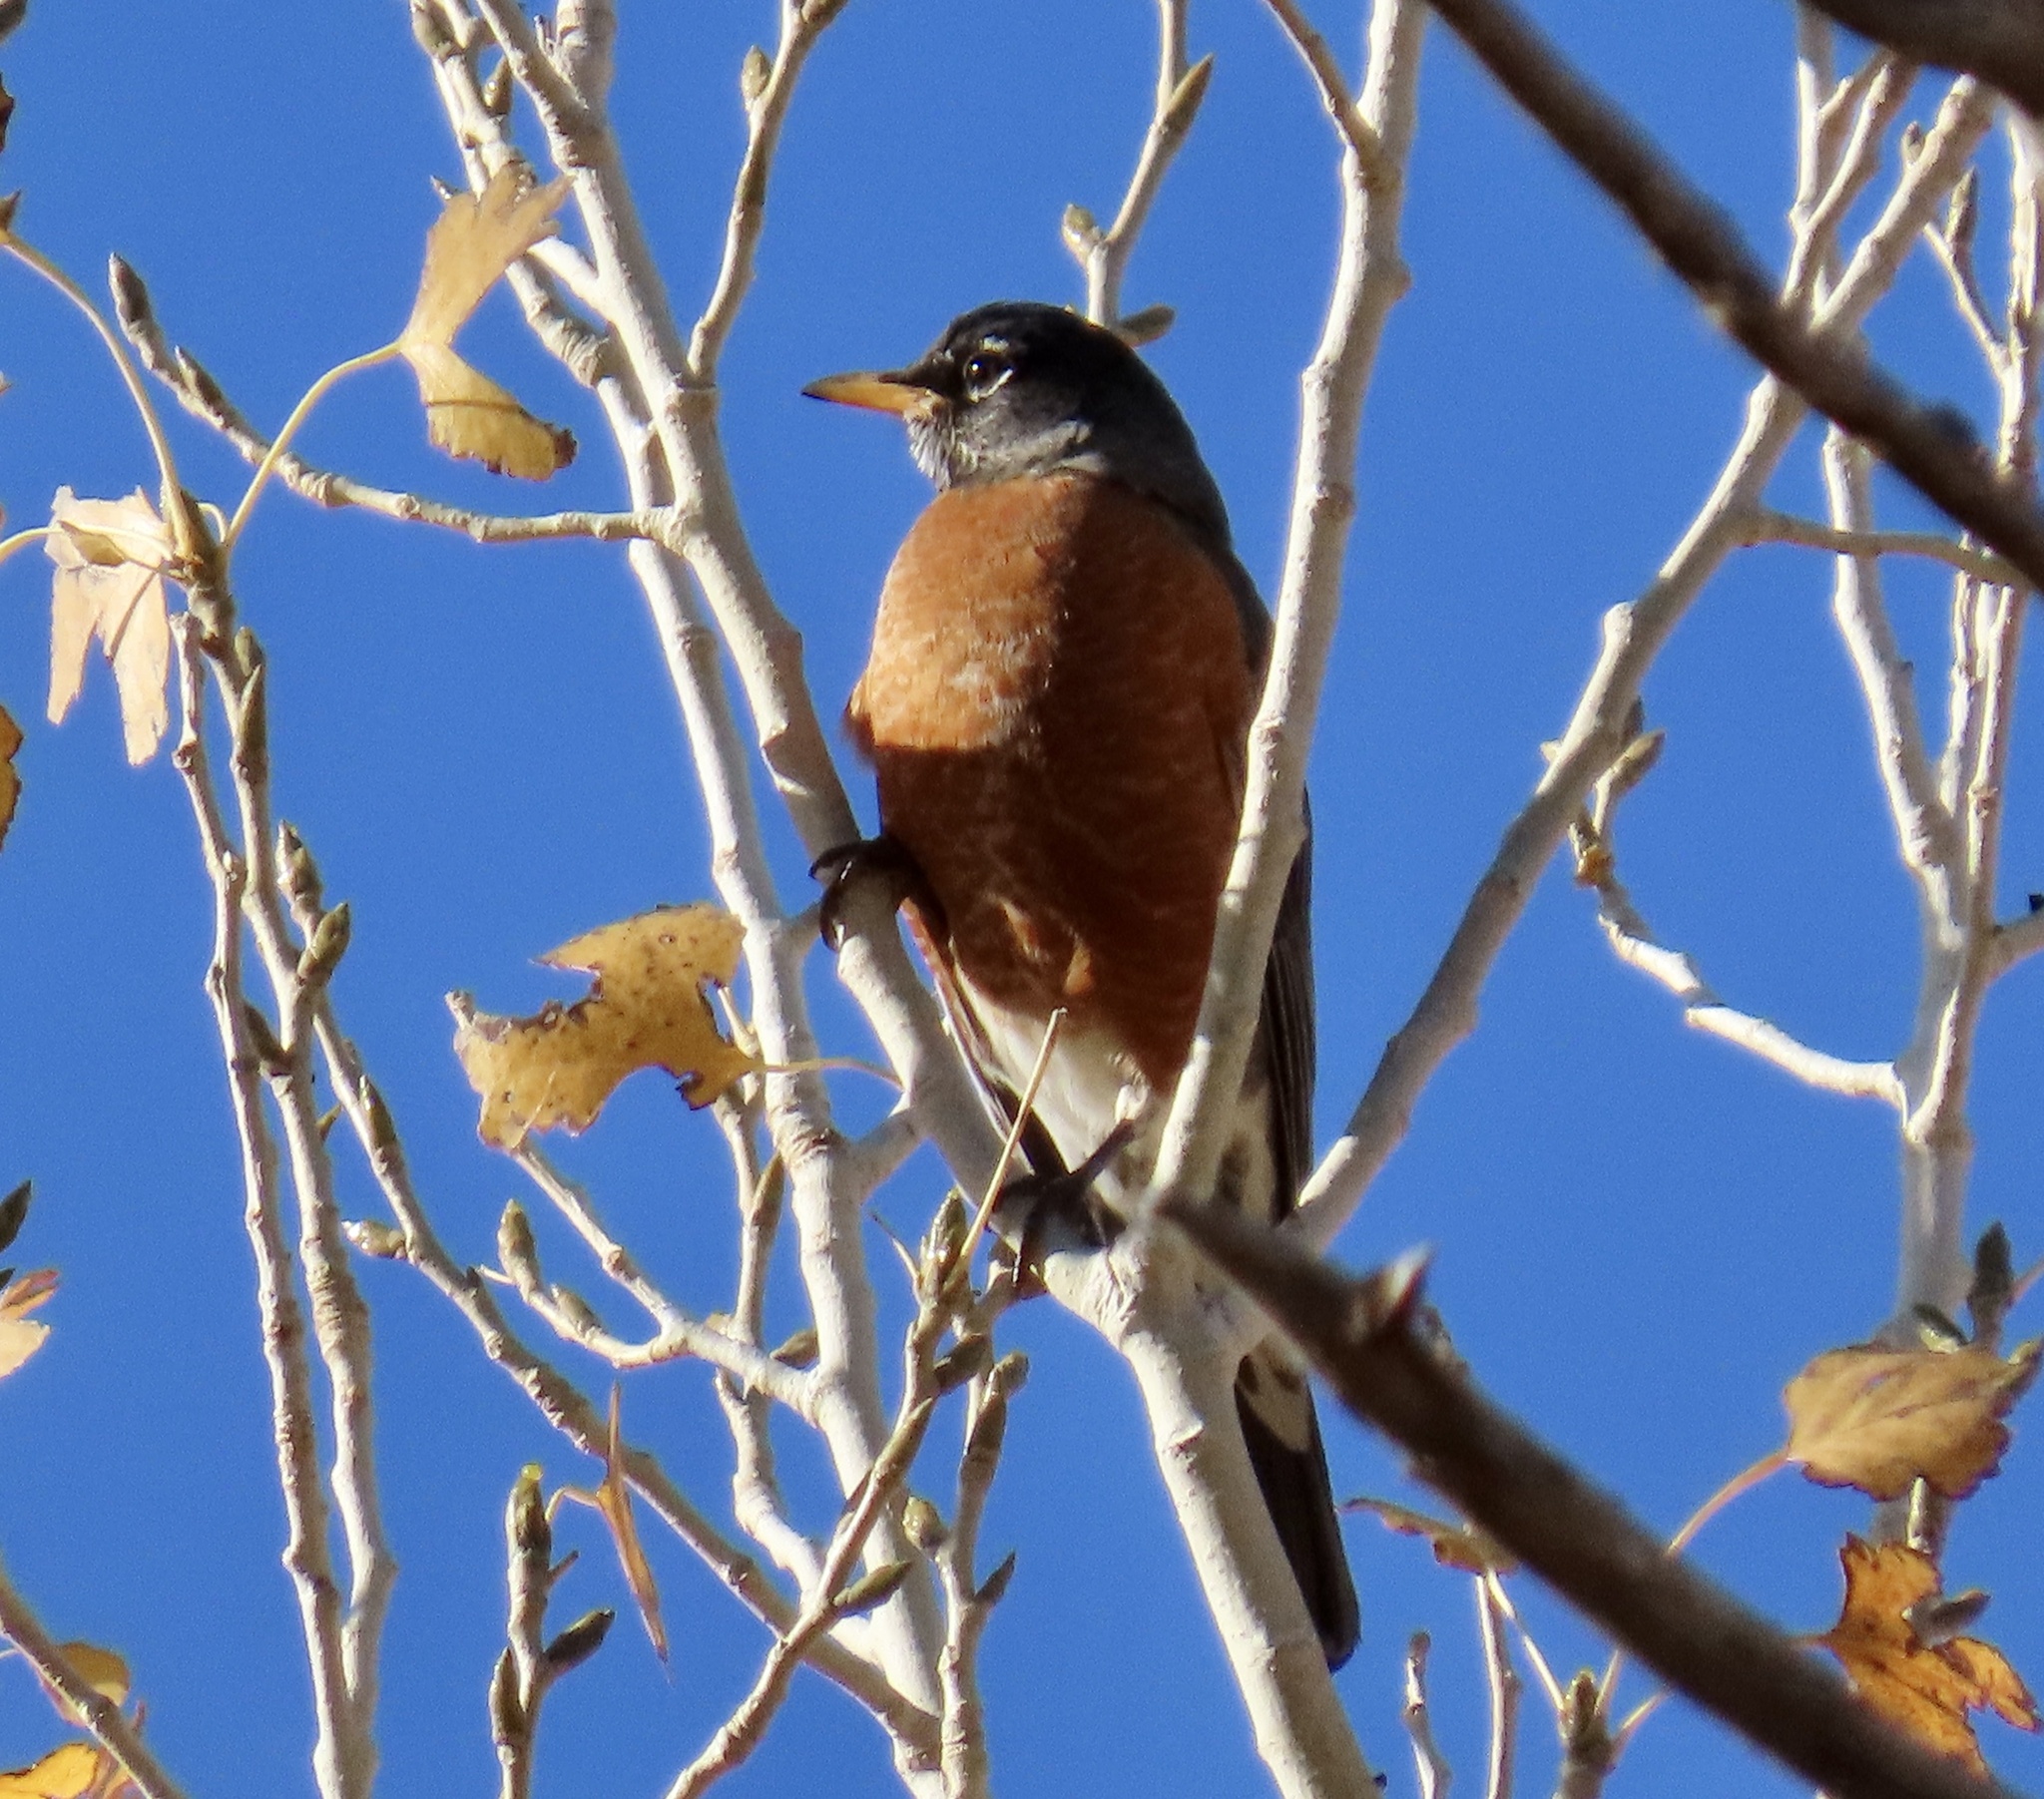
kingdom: Animalia
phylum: Chordata
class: Aves
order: Passeriformes
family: Turdidae
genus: Turdus
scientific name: Turdus migratorius
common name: American robin
